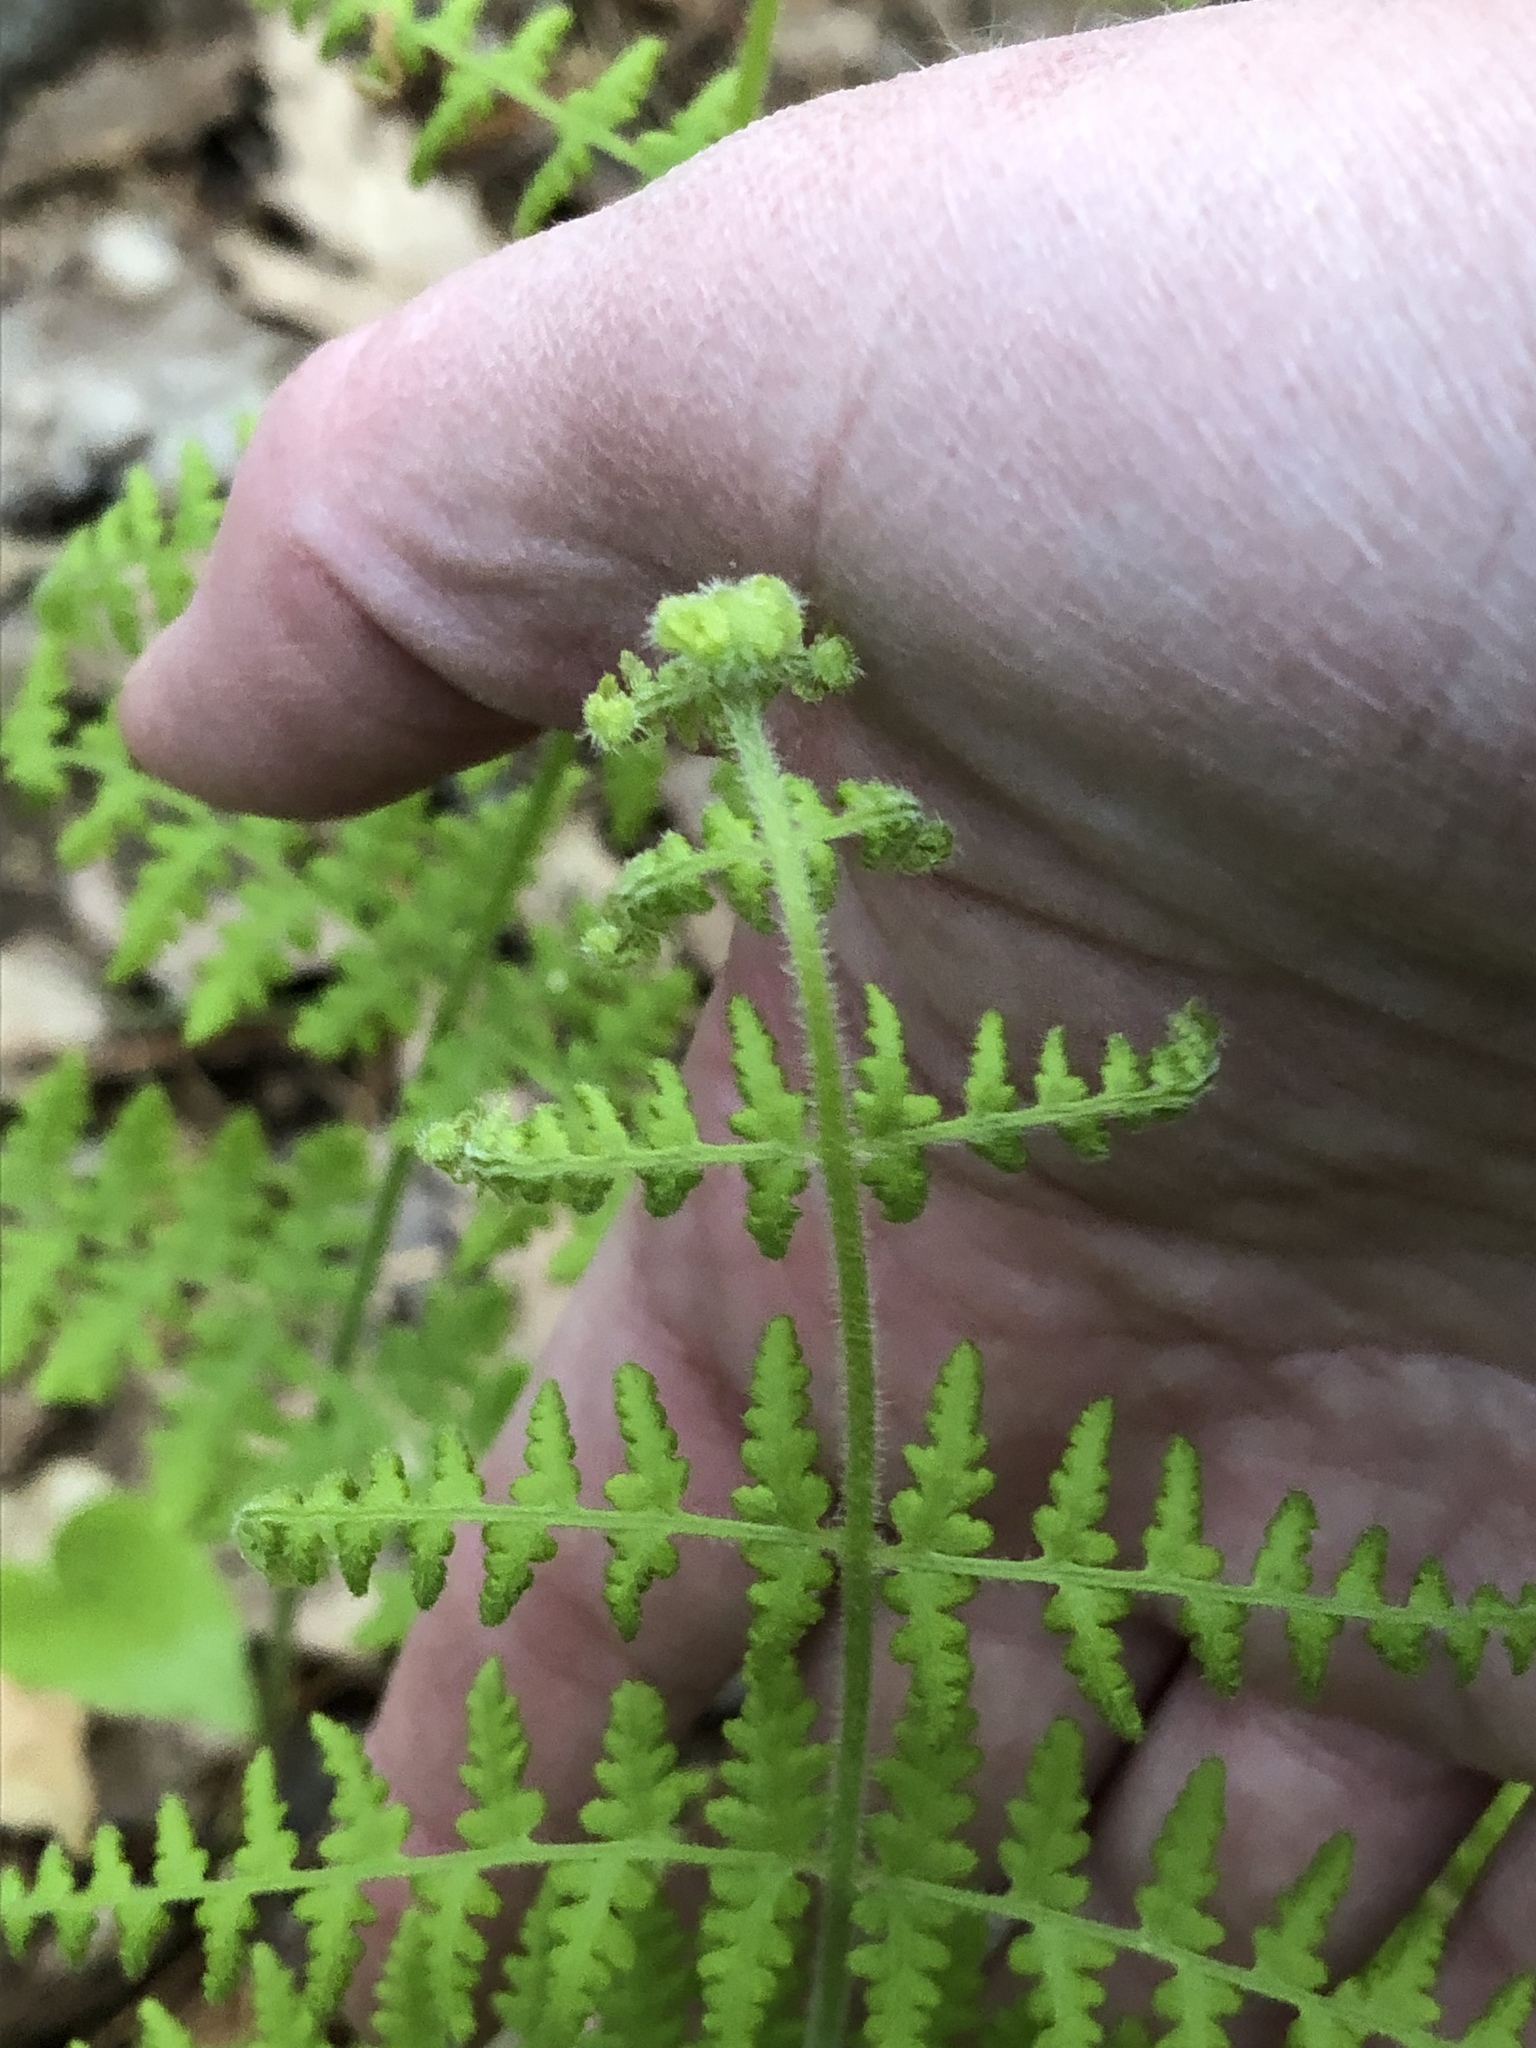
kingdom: Plantae
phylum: Tracheophyta
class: Polypodiopsida
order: Polypodiales
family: Dennstaedtiaceae
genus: Sitobolium
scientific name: Sitobolium punctilobum
